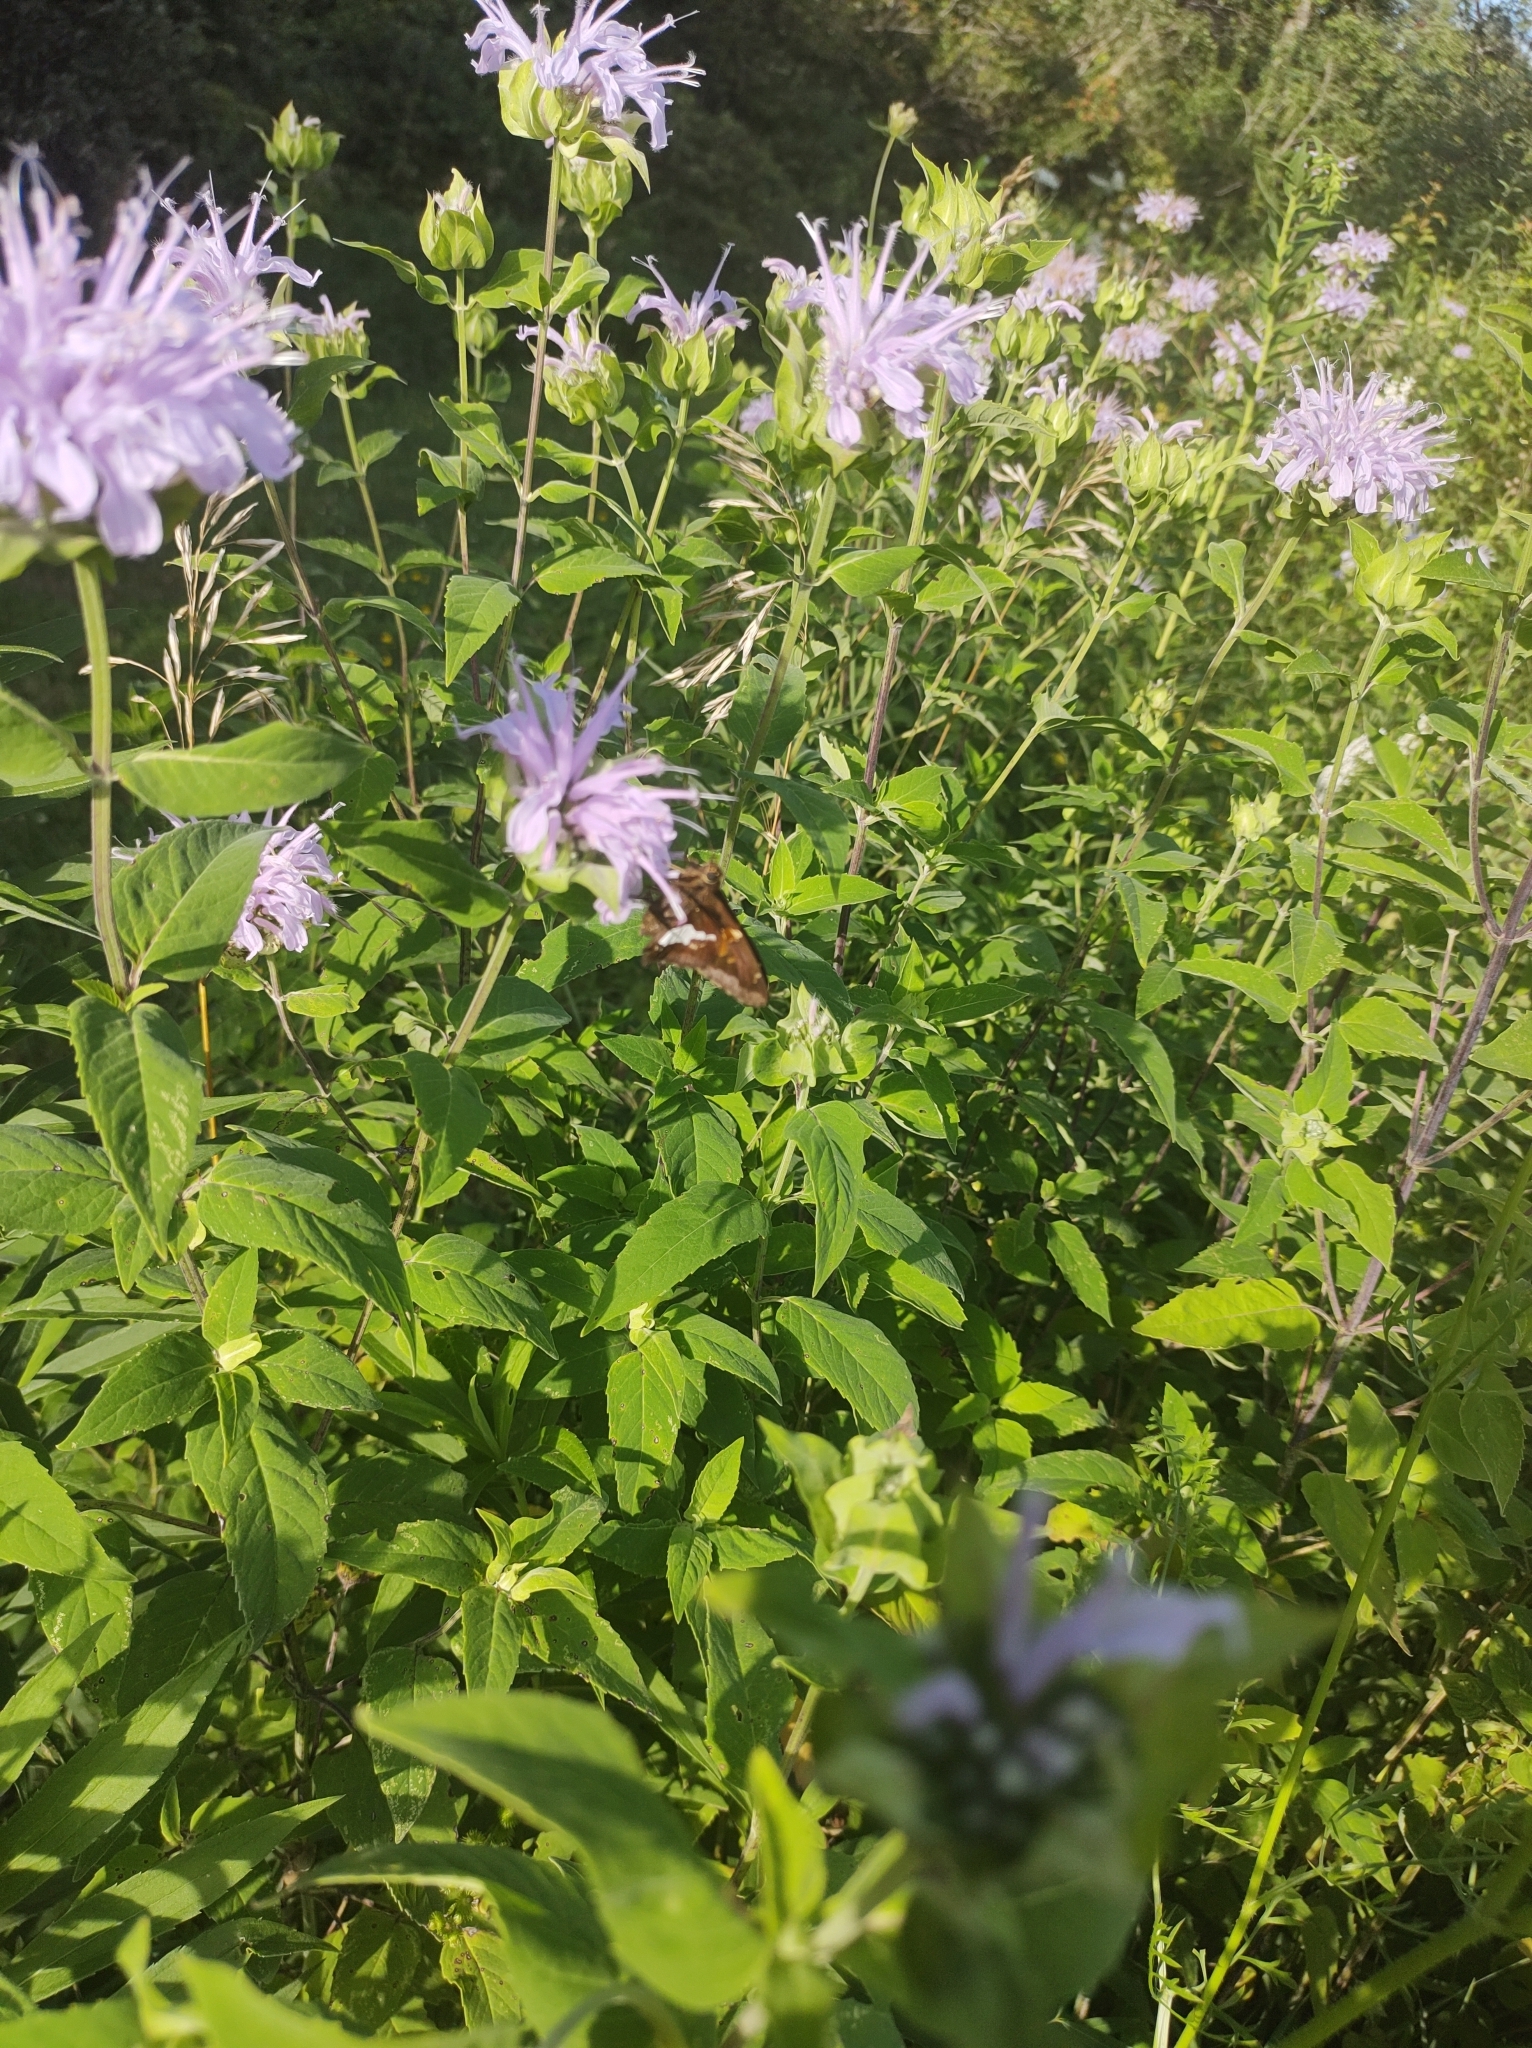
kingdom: Animalia
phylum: Arthropoda
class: Insecta
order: Lepidoptera
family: Hesperiidae
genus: Epargyreus
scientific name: Epargyreus clarus
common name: Silver-spotted skipper
